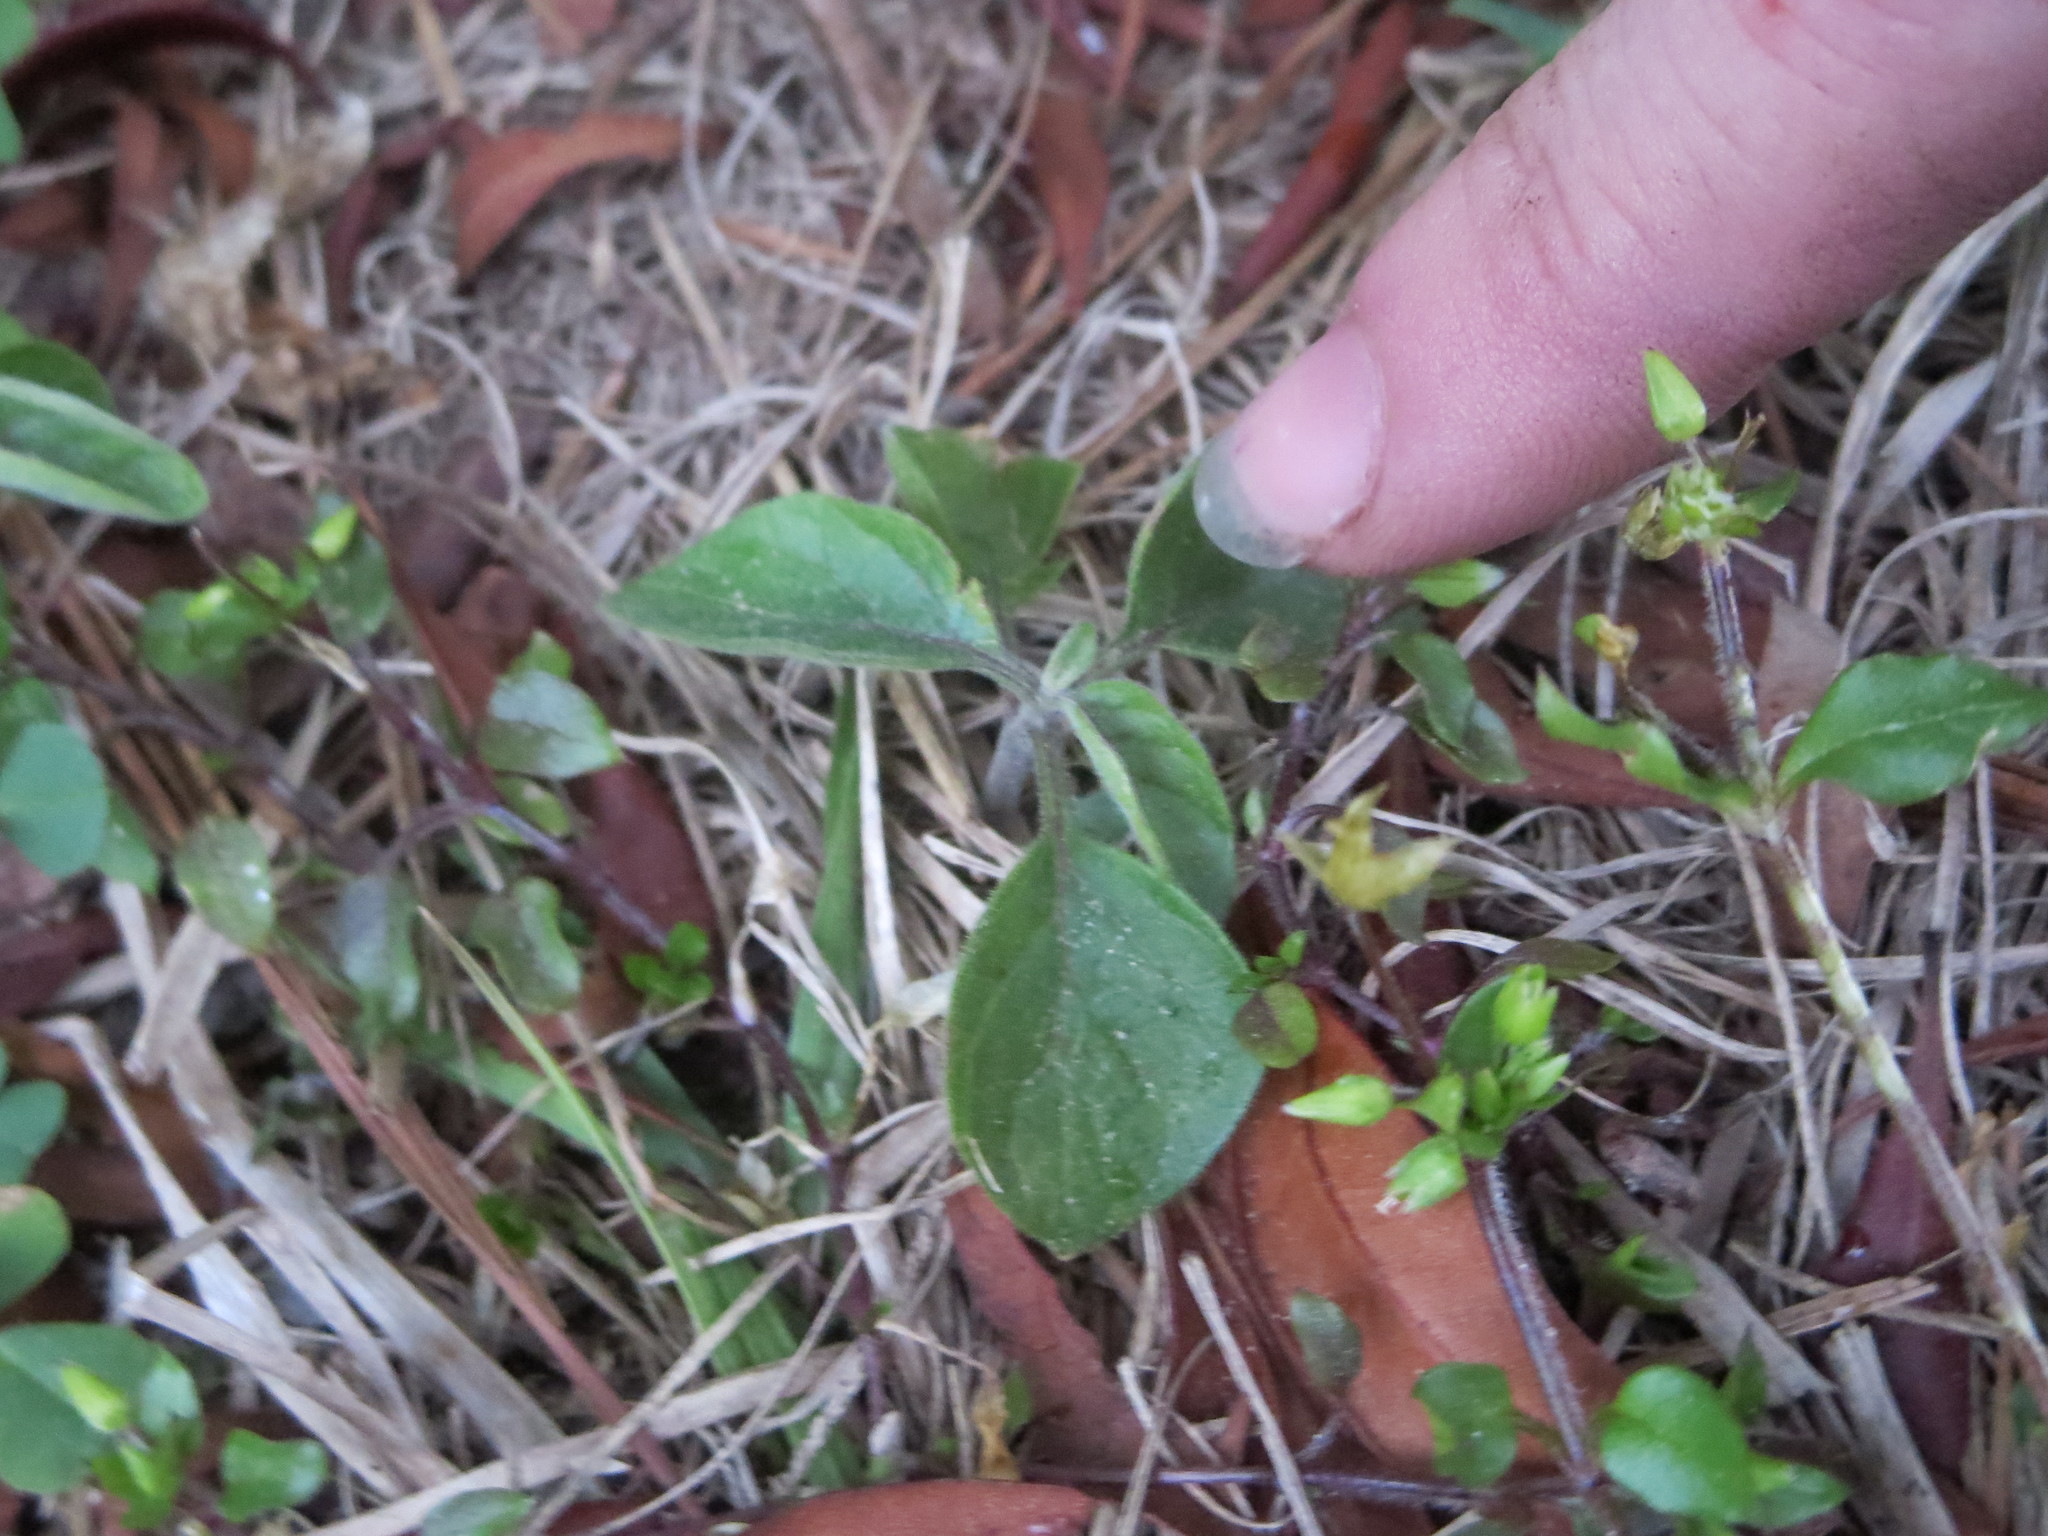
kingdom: Plantae
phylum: Tracheophyta
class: Magnoliopsida
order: Solanales
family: Solanaceae
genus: Physalis
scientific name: Physalis walteri
